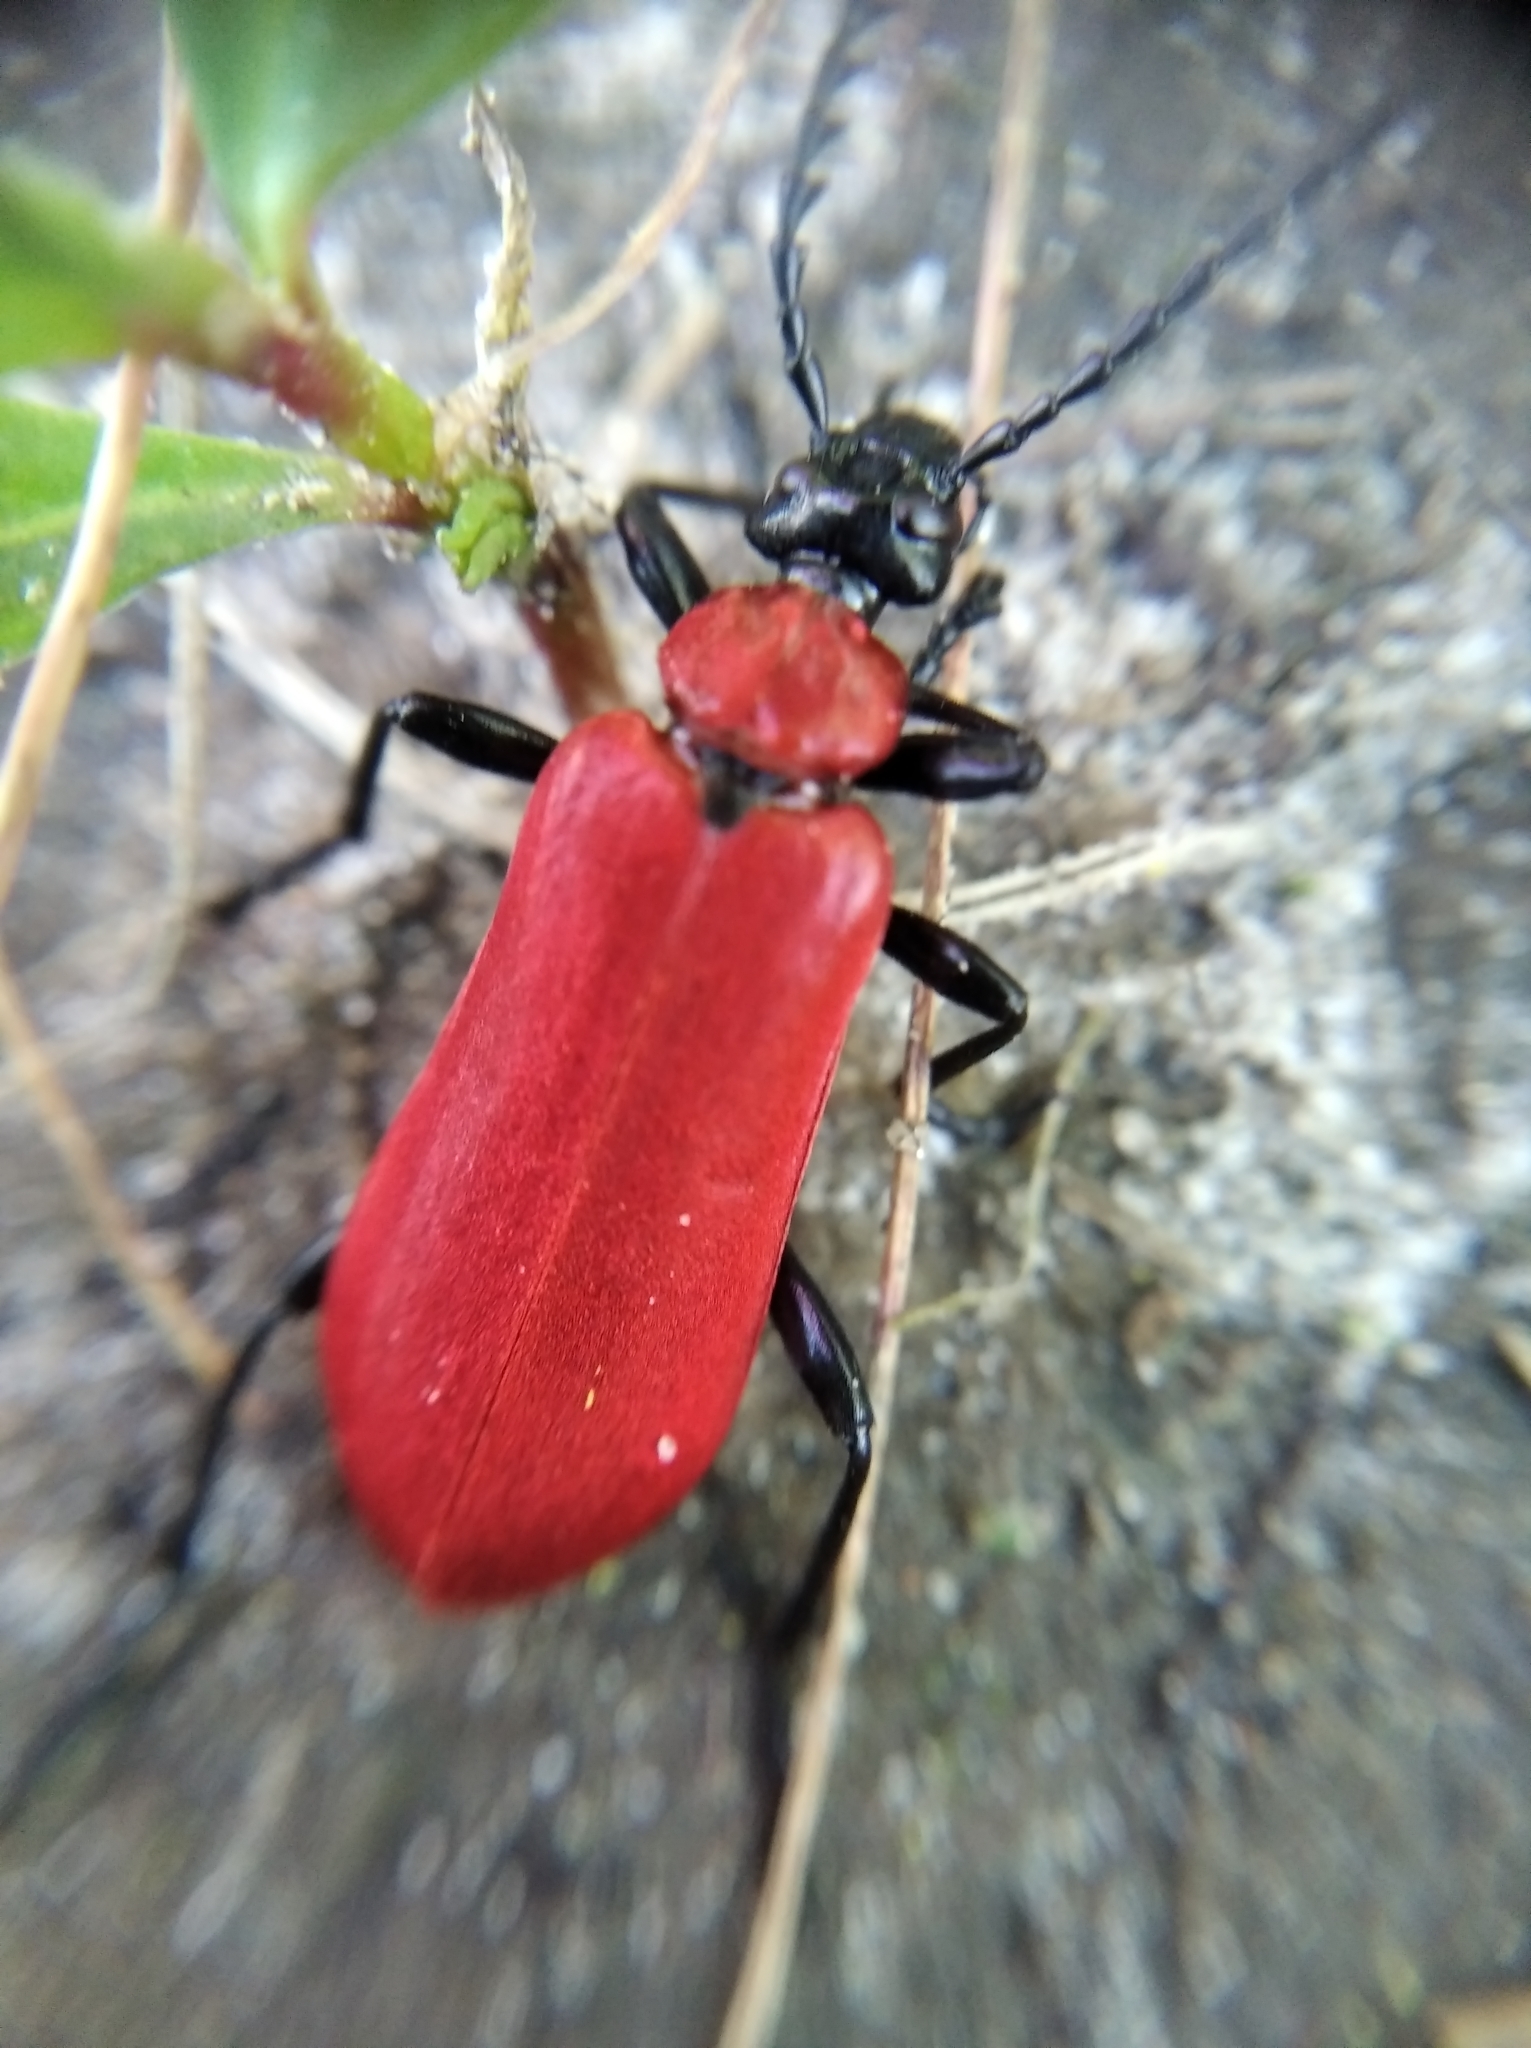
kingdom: Animalia
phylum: Arthropoda
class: Insecta
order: Coleoptera
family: Pyrochroidae
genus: Pyrochroa
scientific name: Pyrochroa coccinea
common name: Black-headed cardinal beetle
